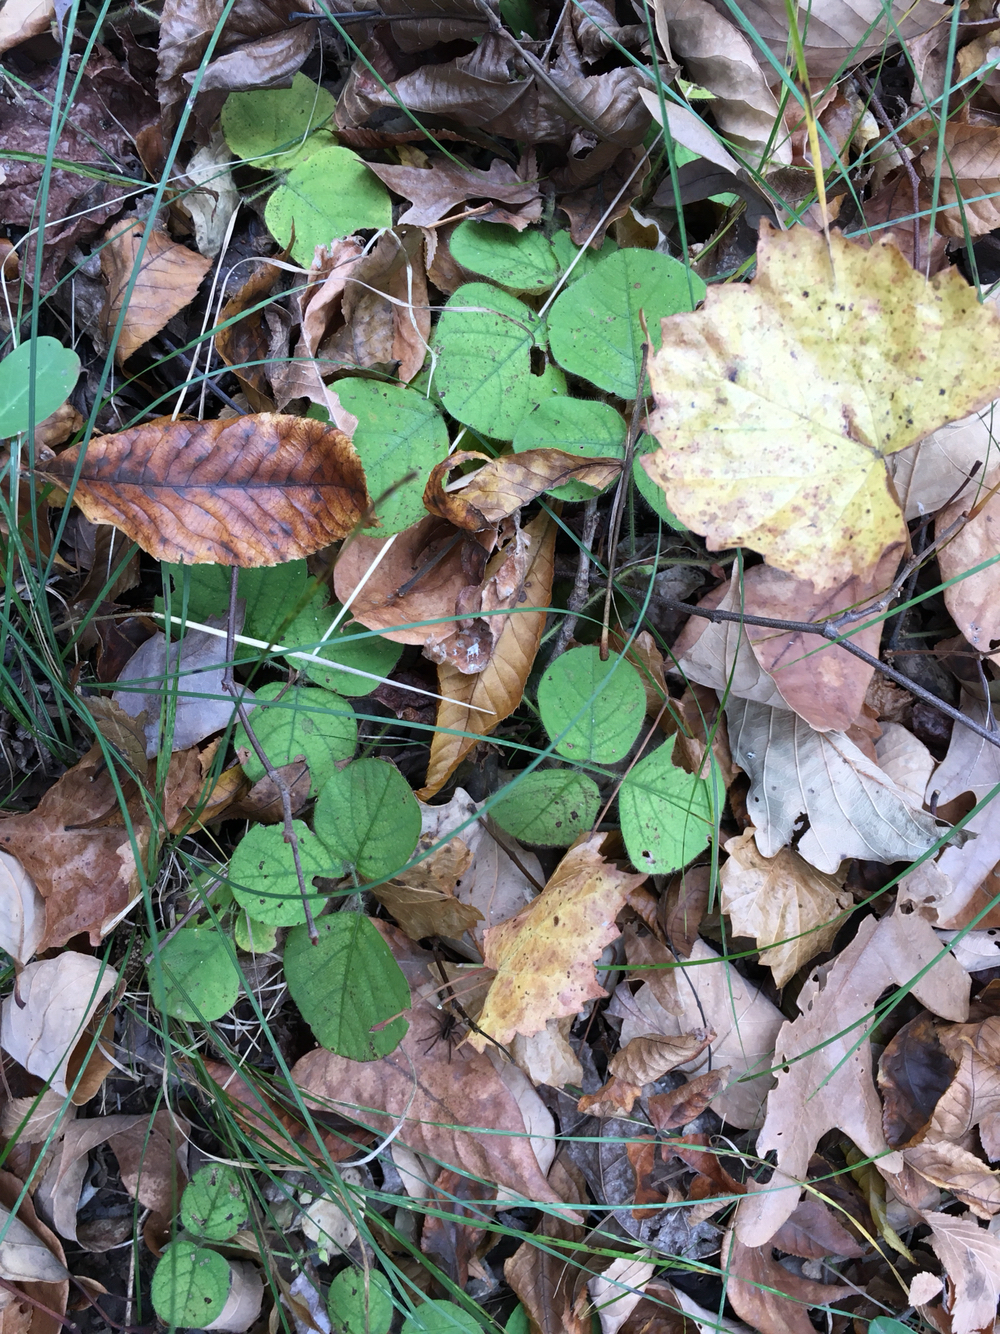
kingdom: Plantae
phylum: Tracheophyta
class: Magnoliopsida
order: Fabales
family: Fabaceae
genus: Desmodium
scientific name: Desmodium rotundifolium
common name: Dollarleaf
